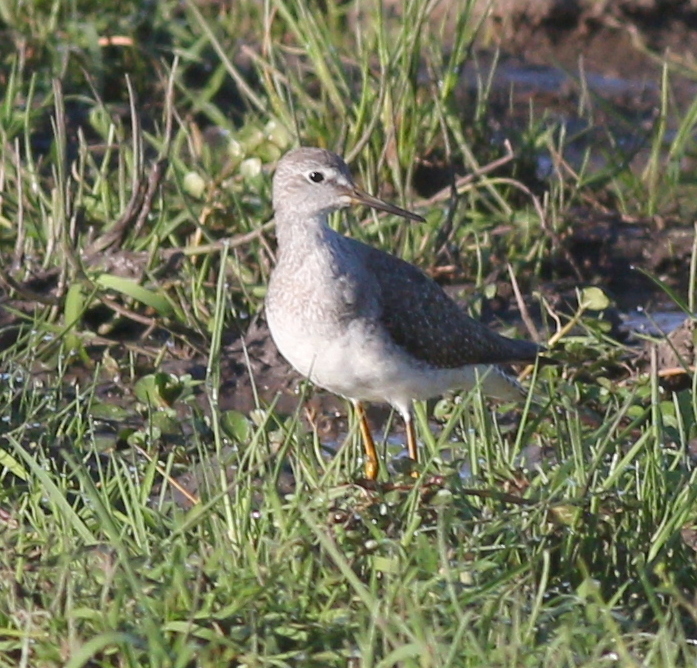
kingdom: Animalia
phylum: Chordata
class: Aves
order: Charadriiformes
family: Scolopacidae
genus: Tringa
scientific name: Tringa flavipes
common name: Lesser yellowlegs
